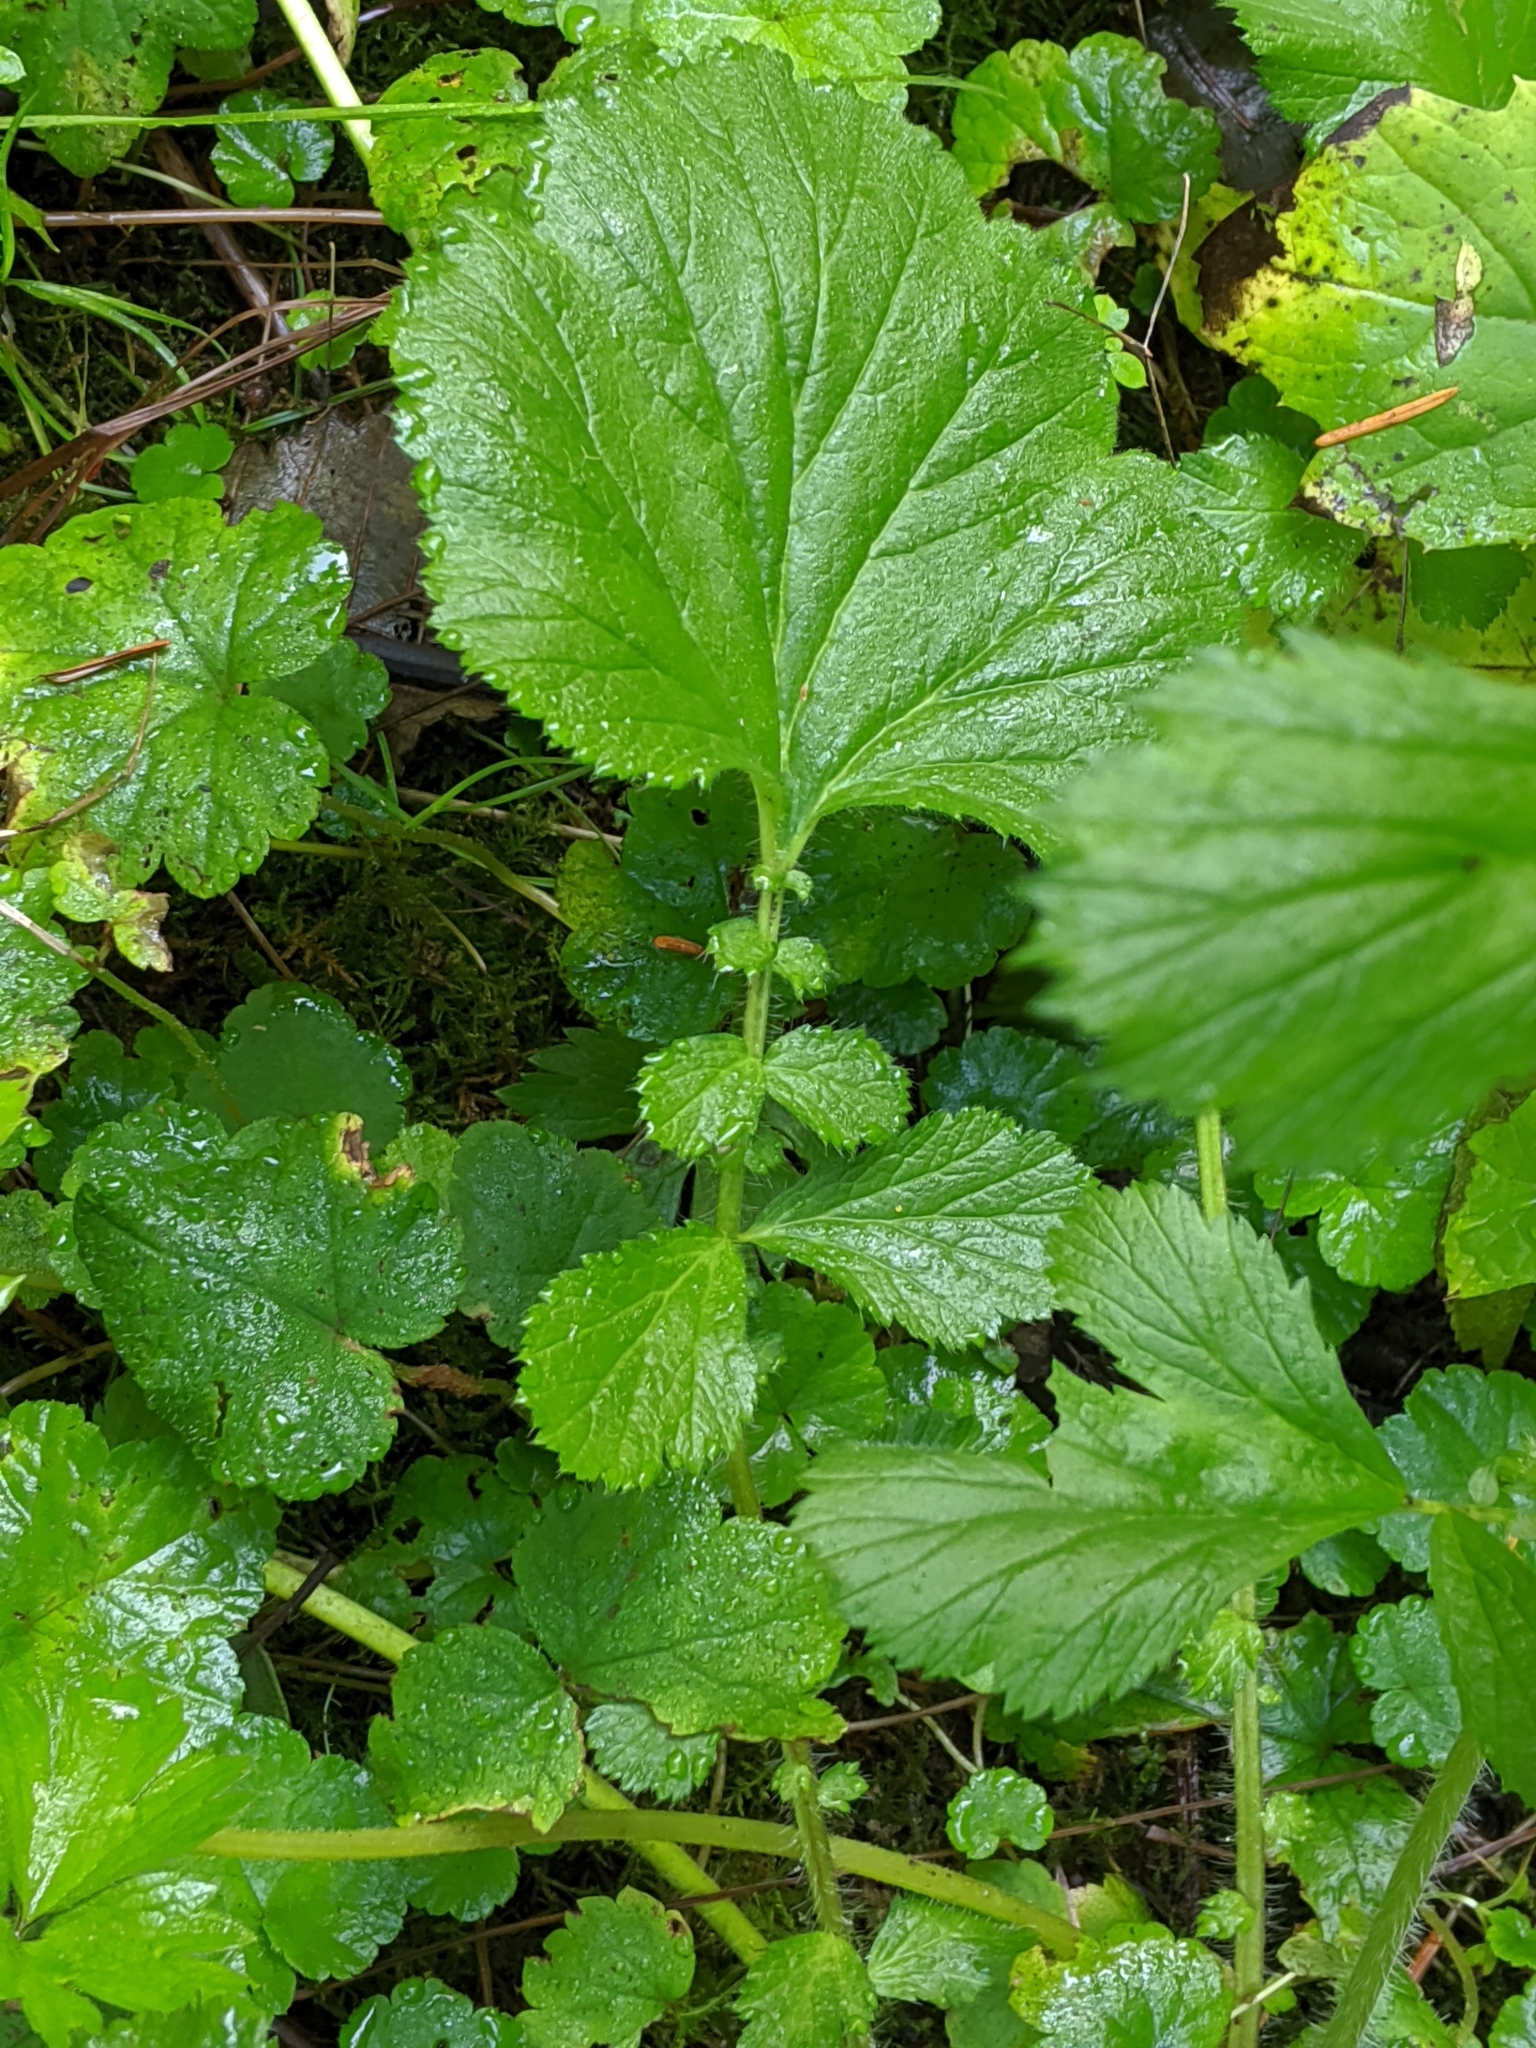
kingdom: Plantae
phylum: Tracheophyta
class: Magnoliopsida
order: Rosales
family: Rosaceae
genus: Geum
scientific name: Geum macrophyllum
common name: Large-leaved avens
